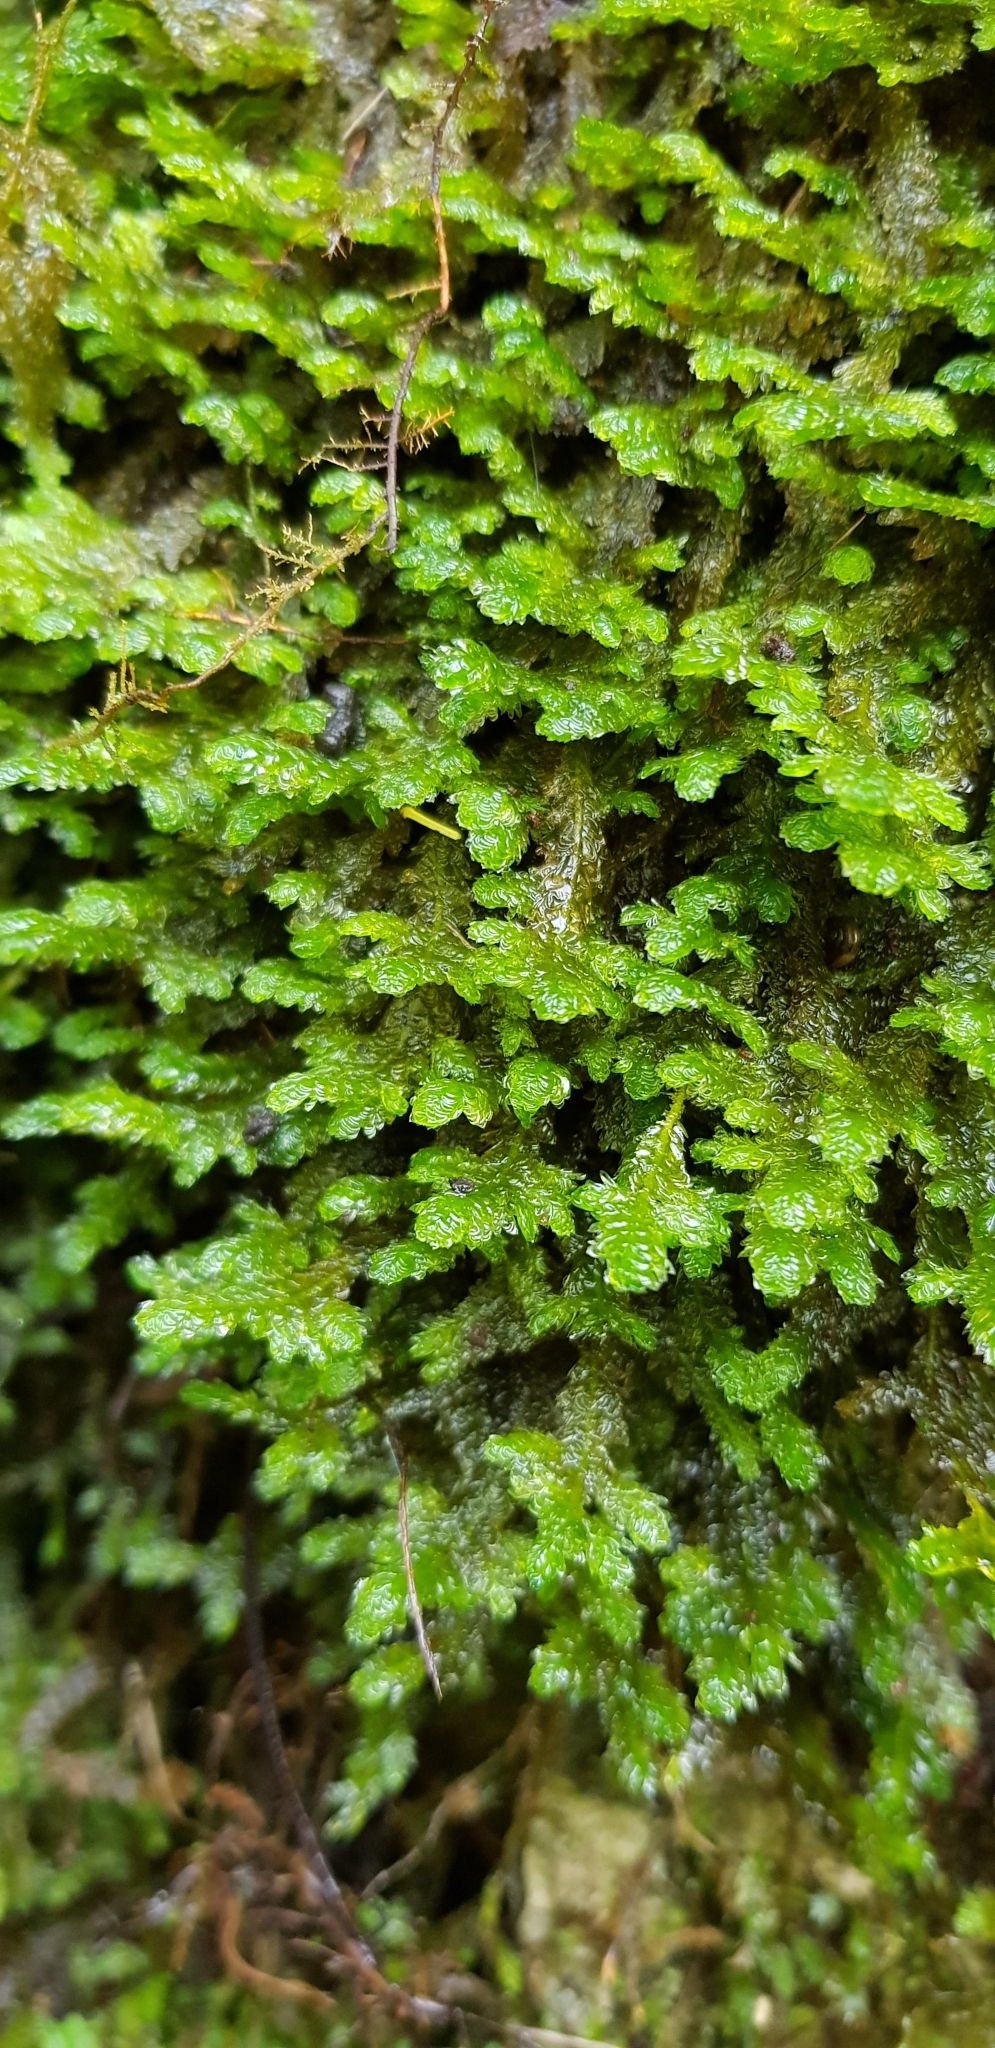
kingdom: Plantae
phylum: Bryophyta
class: Bryopsida
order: Hypnales
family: Neckeraceae
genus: Exsertotheca
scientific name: Exsertotheca crispa
